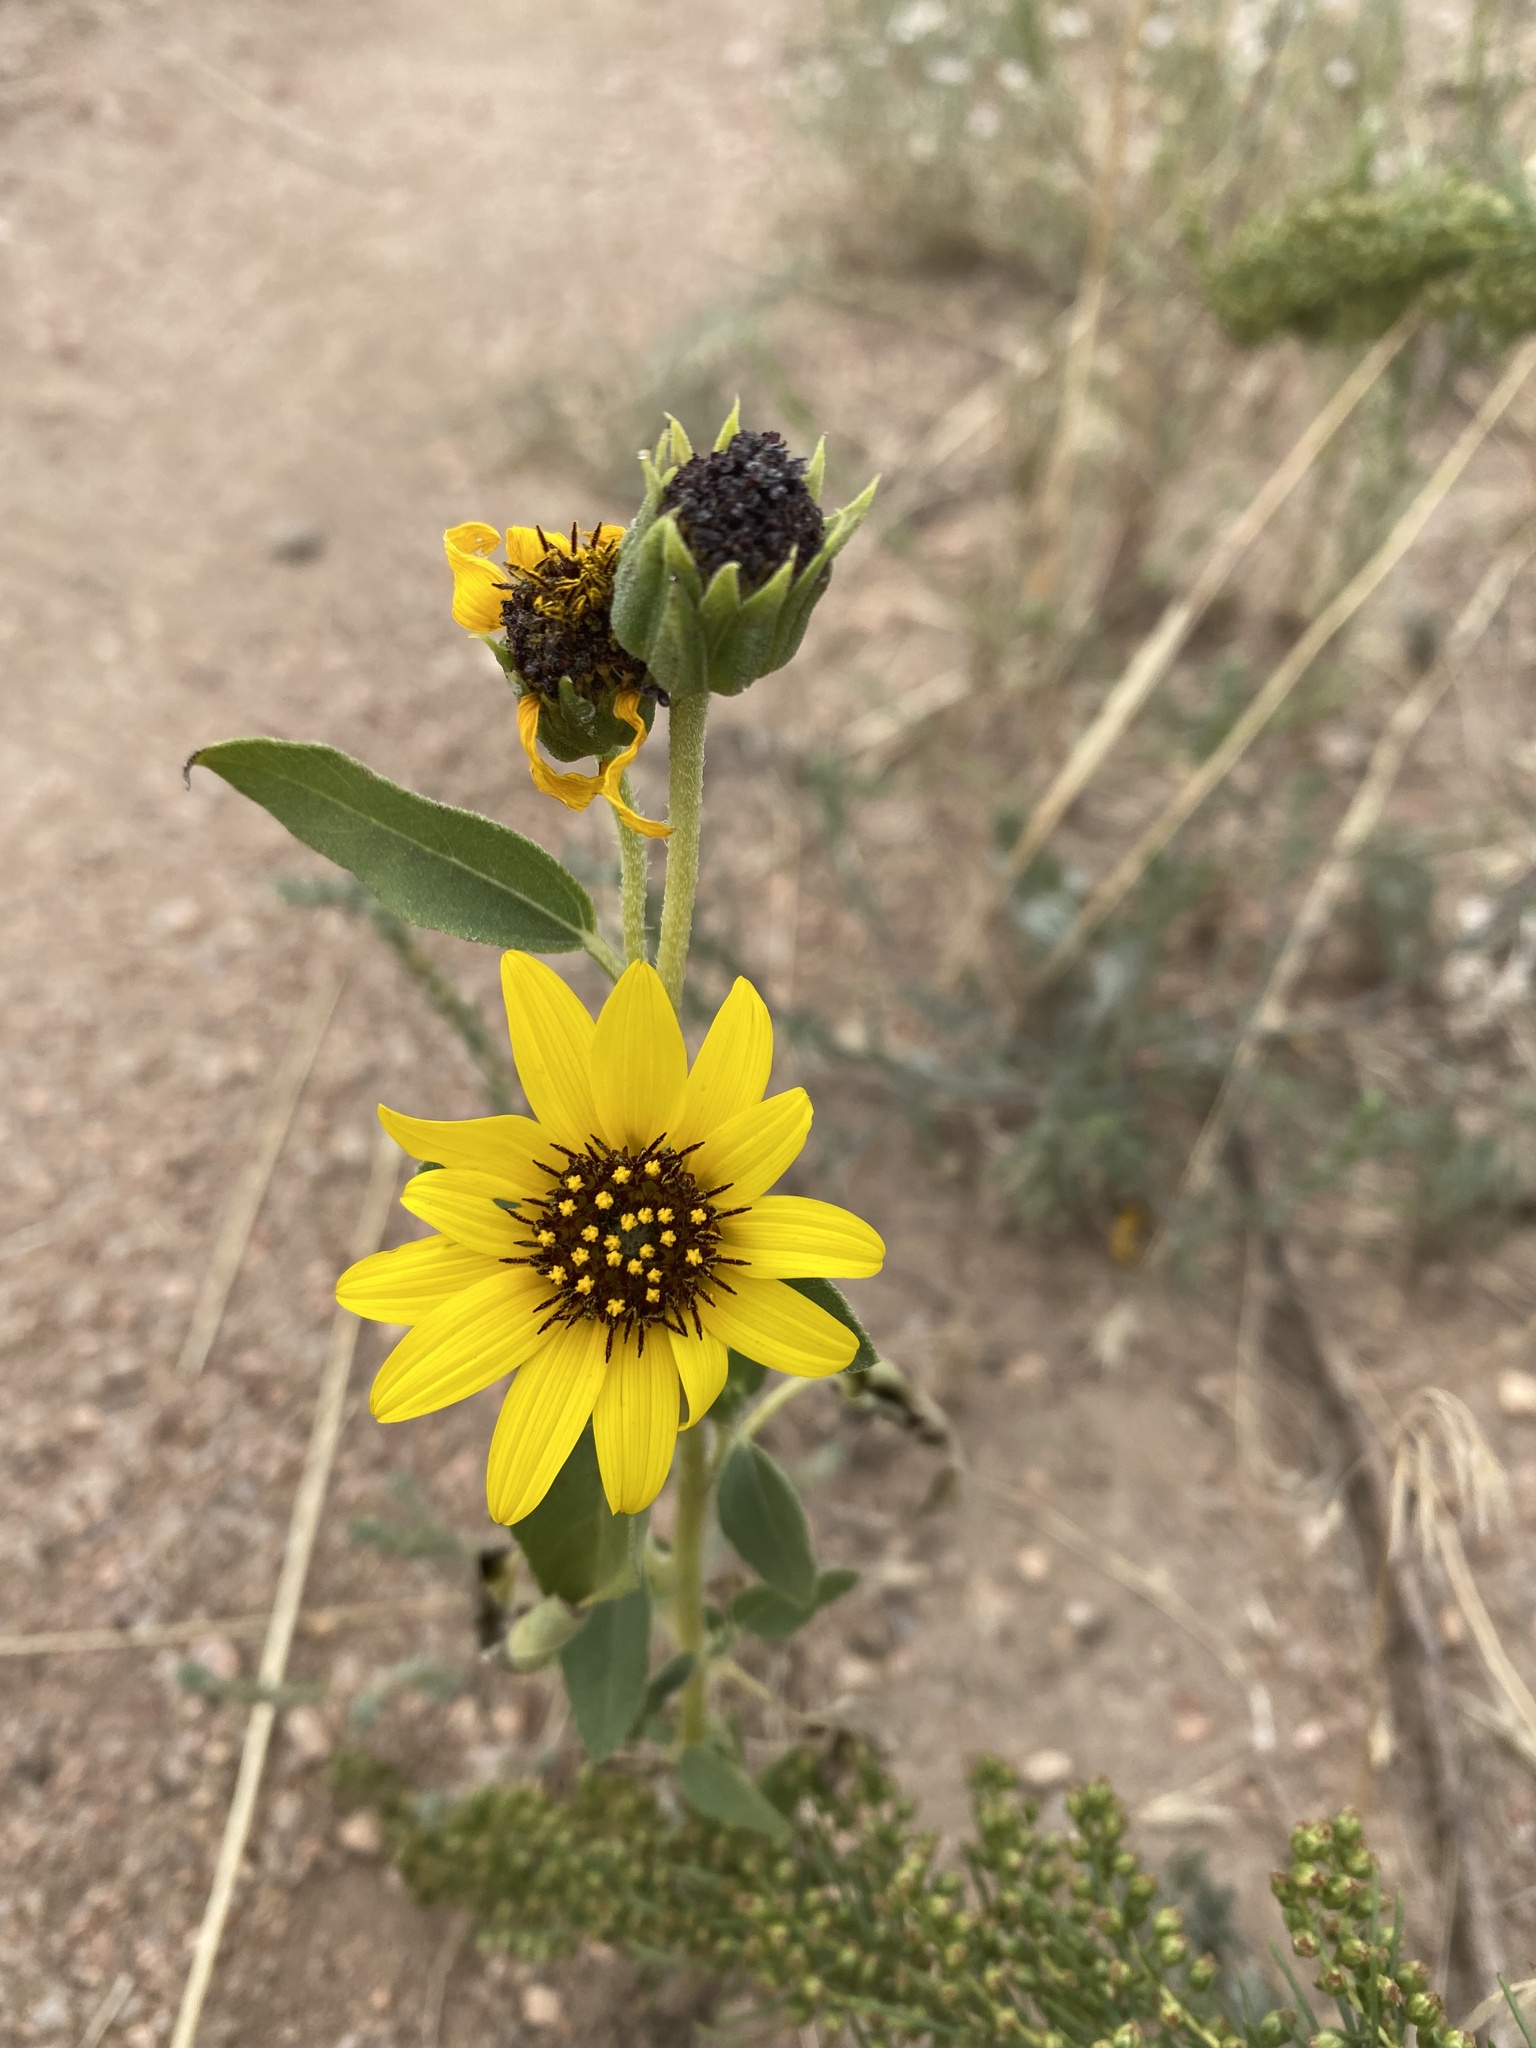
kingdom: Plantae
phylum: Tracheophyta
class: Magnoliopsida
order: Asterales
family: Asteraceae
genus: Helianthus
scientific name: Helianthus petiolaris
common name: Lesser sunflower
